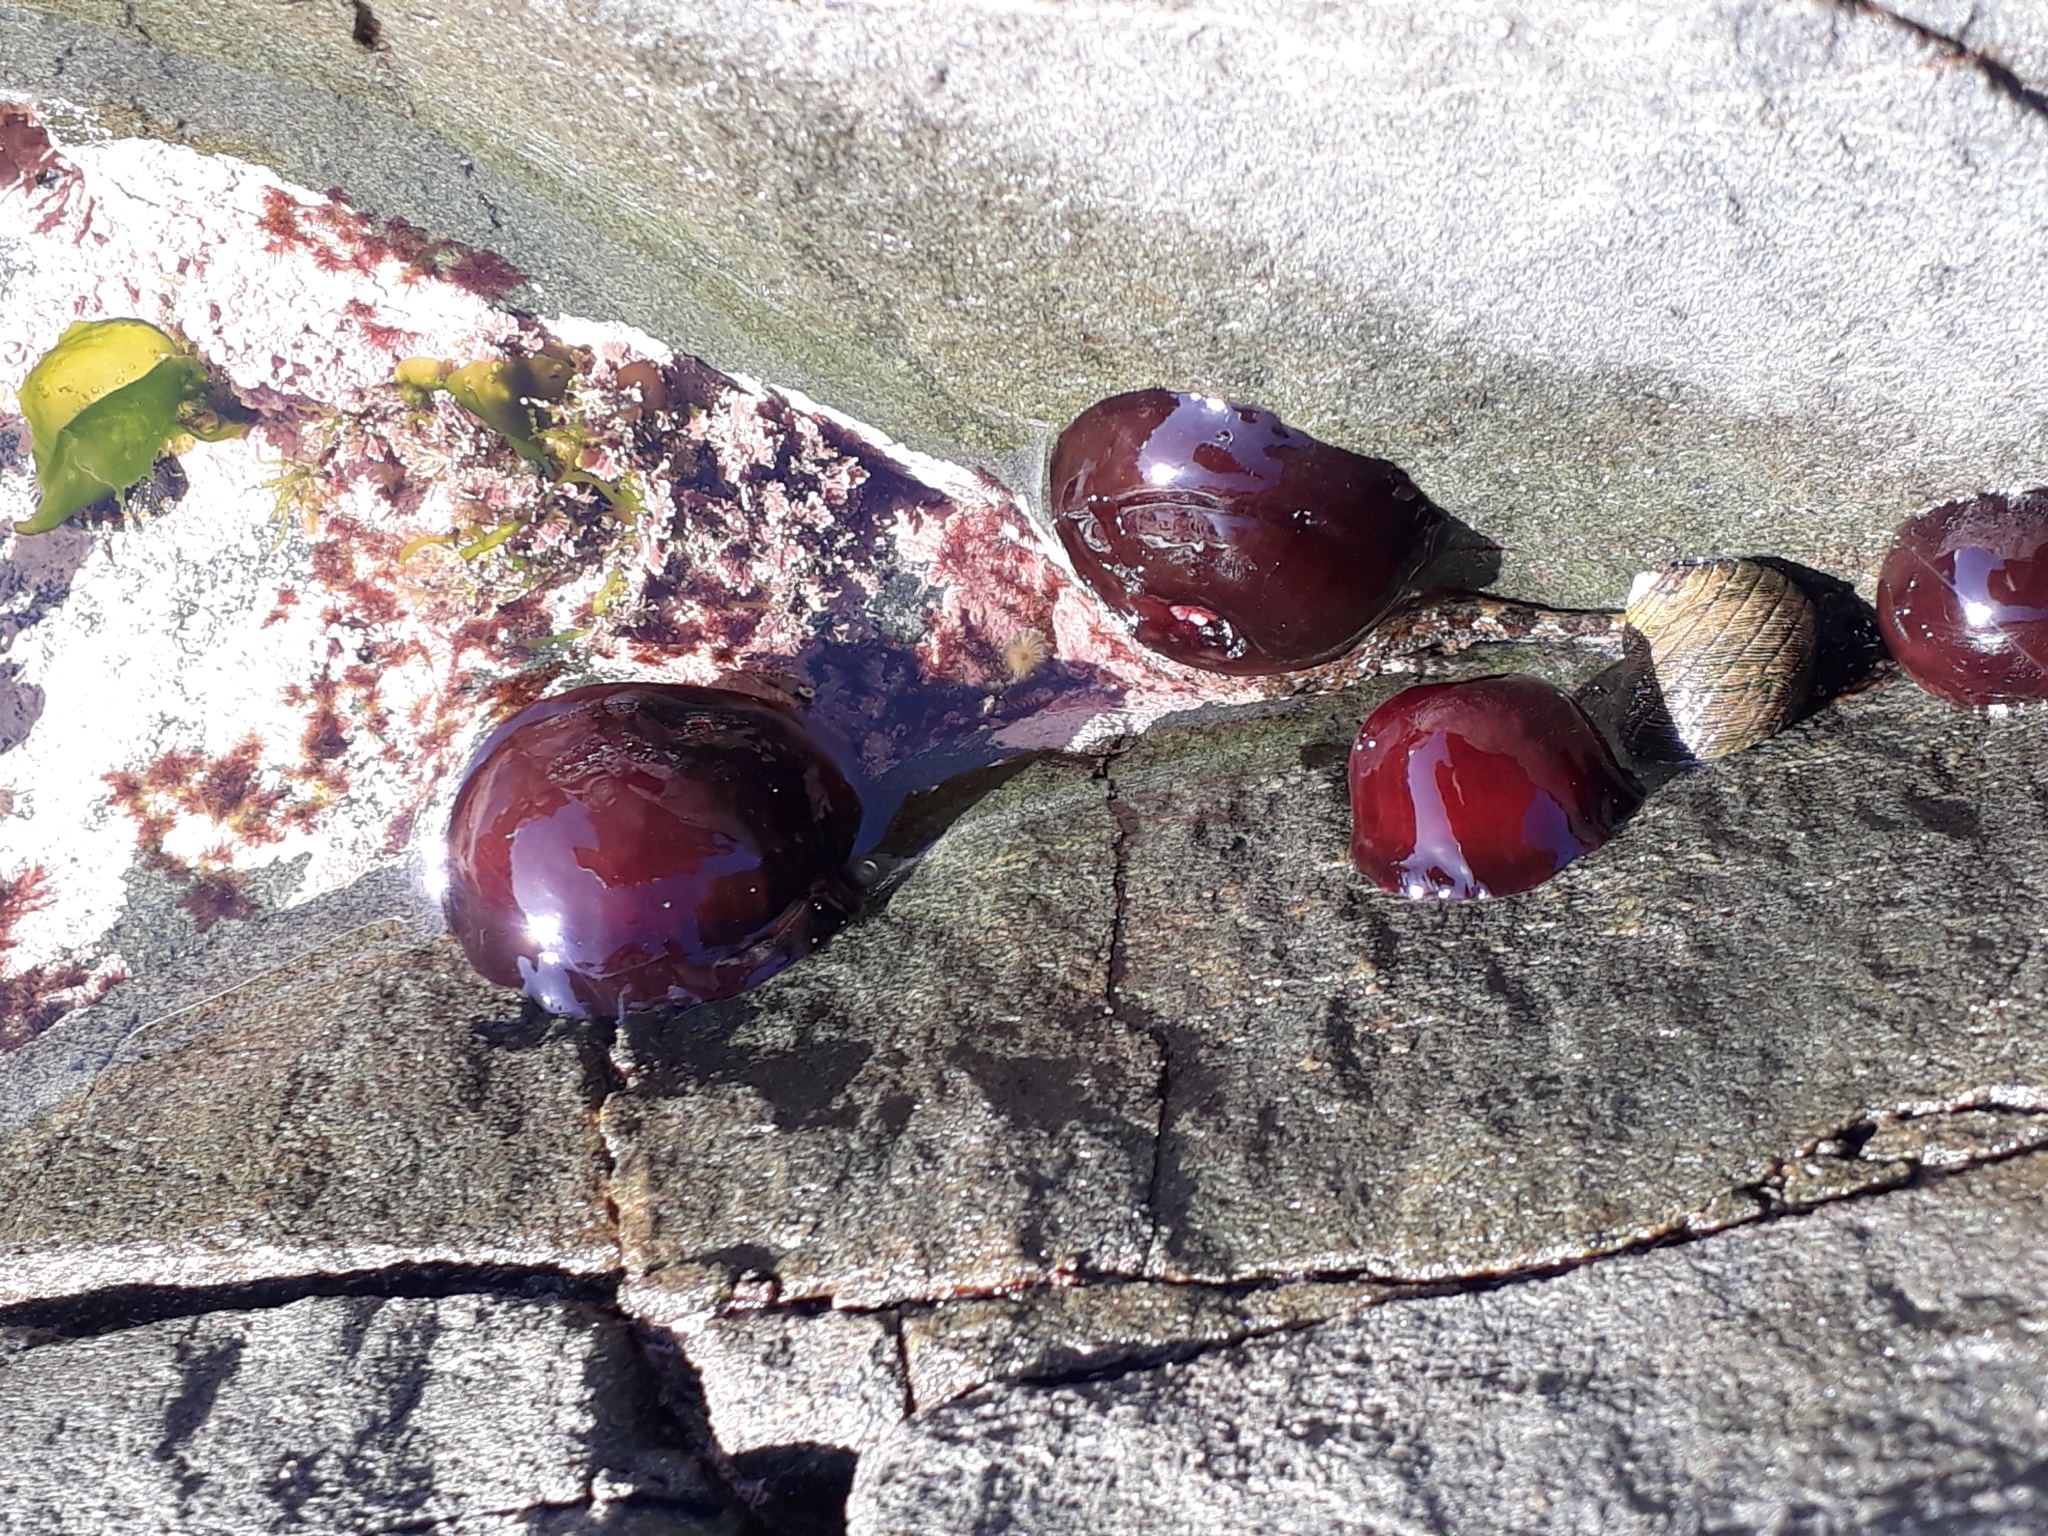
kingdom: Animalia
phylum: Cnidaria
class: Anthozoa
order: Actiniaria
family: Actiniidae
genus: Actinia
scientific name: Actinia tenebrosa
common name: Waratah anemone
